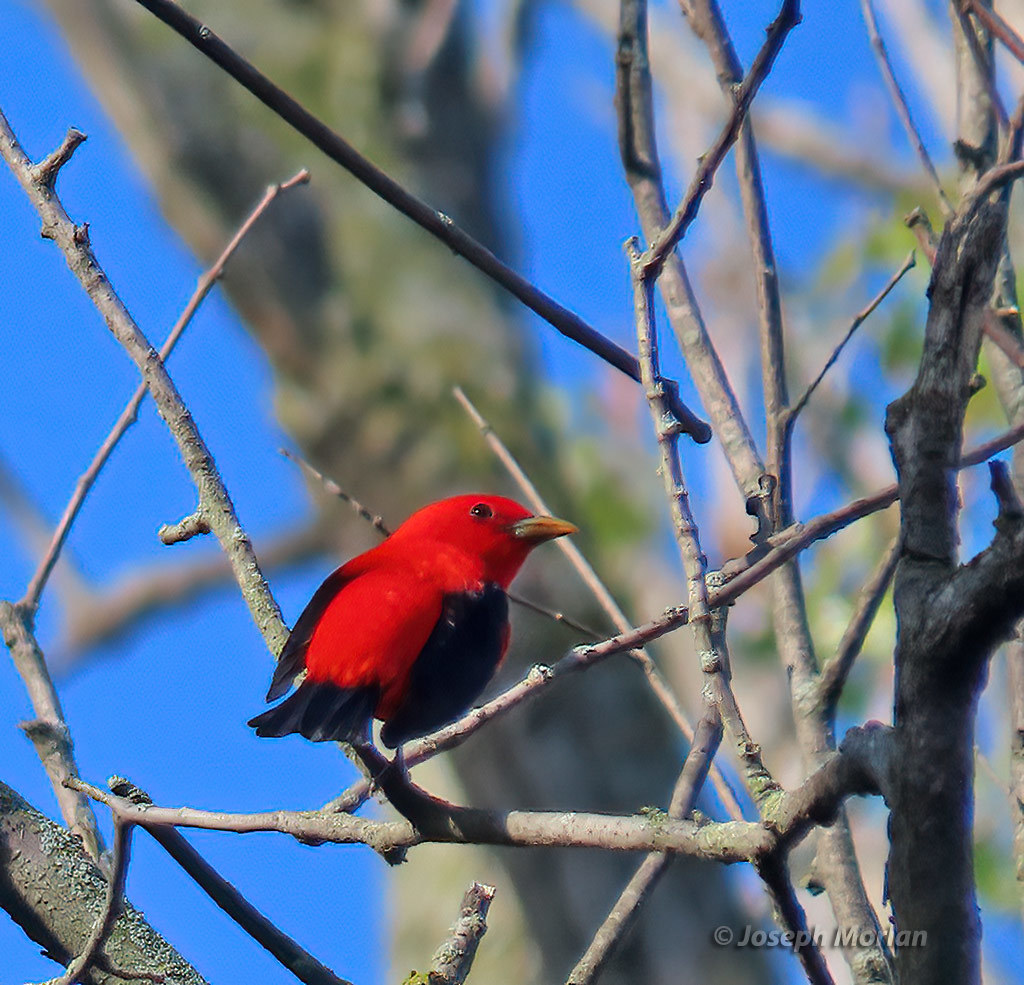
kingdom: Animalia
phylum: Chordata
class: Aves
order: Passeriformes
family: Cardinalidae
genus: Piranga
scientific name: Piranga olivacea
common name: Scarlet tanager
